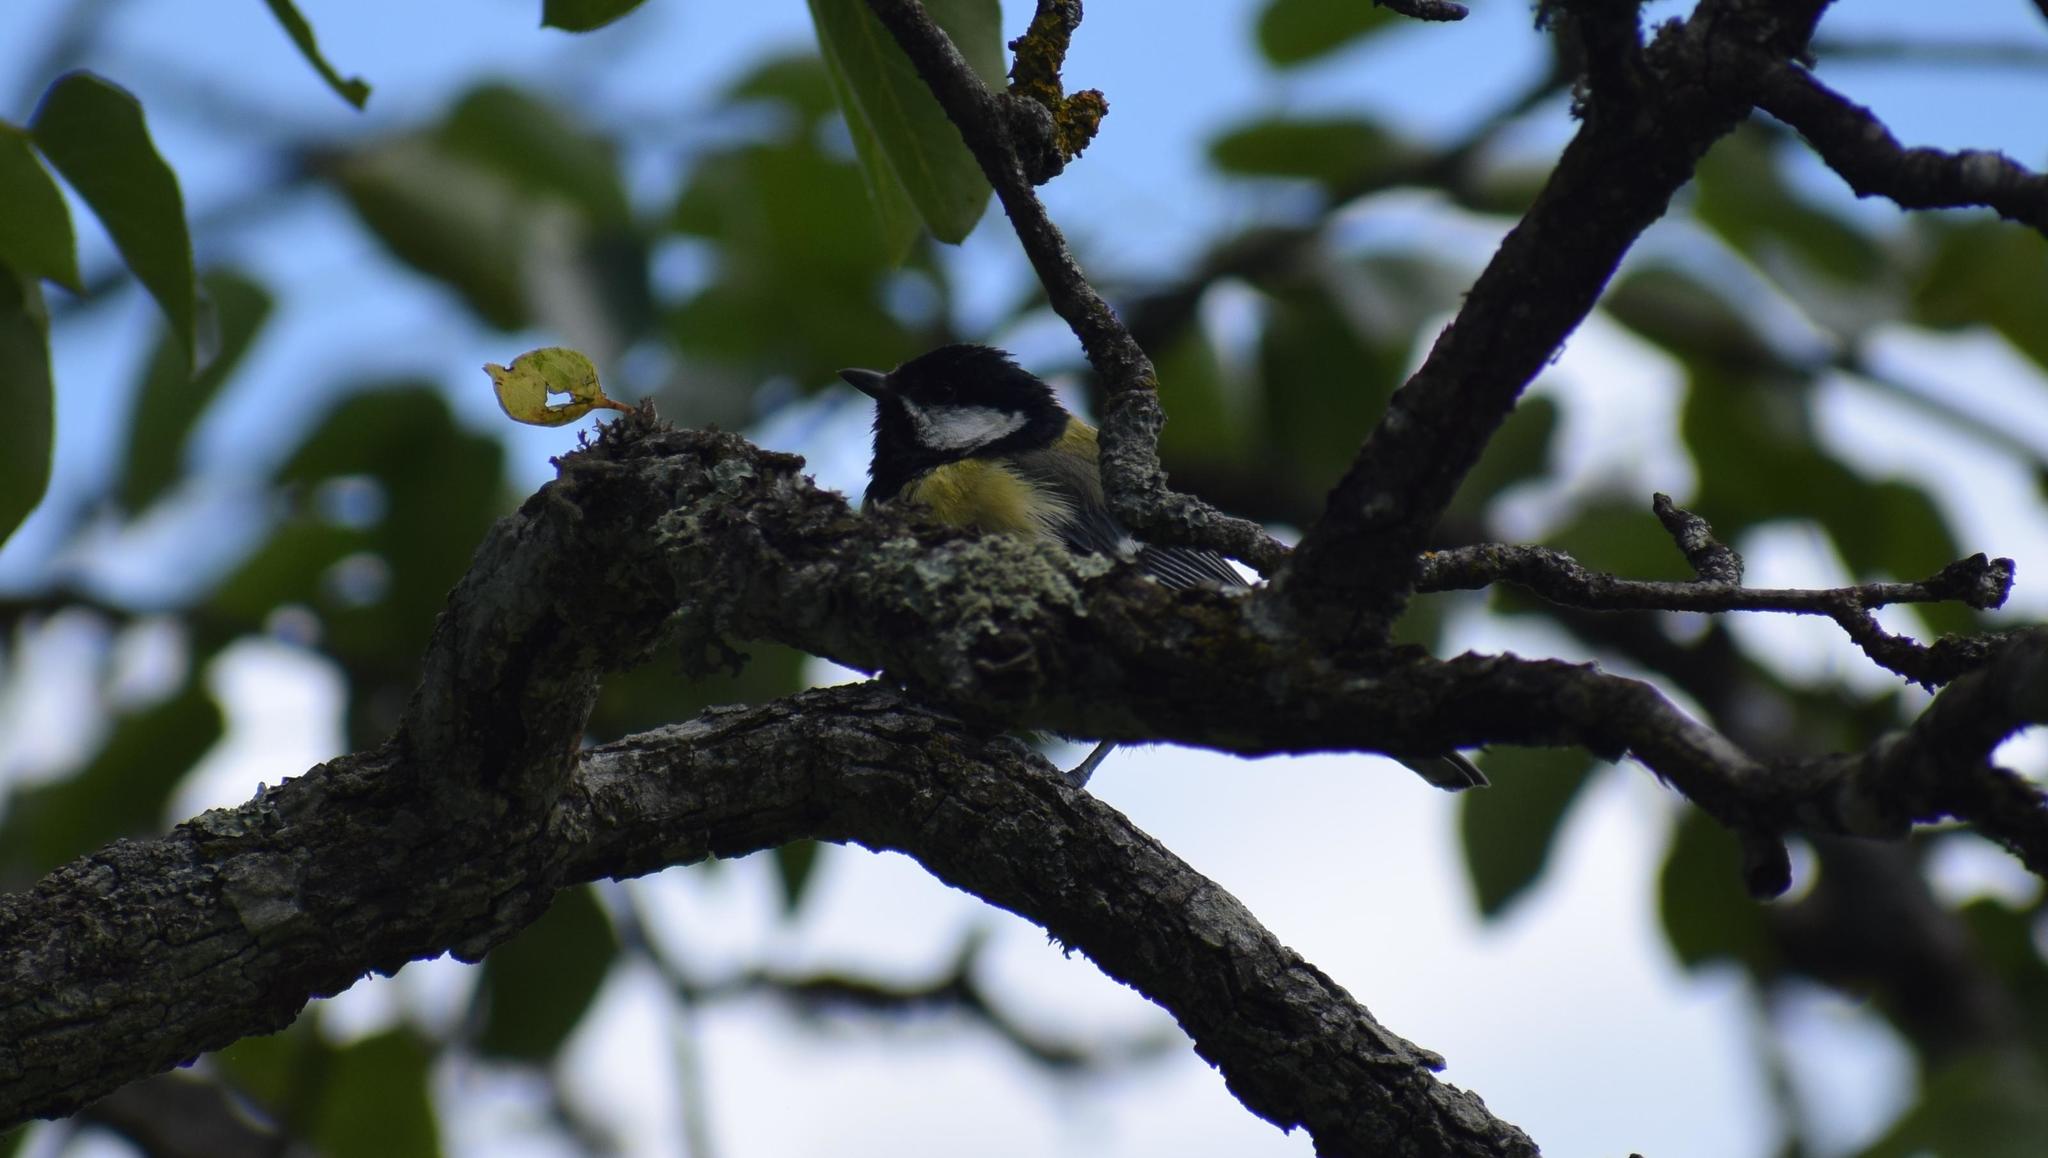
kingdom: Animalia
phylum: Chordata
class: Aves
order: Passeriformes
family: Paridae
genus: Parus
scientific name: Parus major
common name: Great tit
